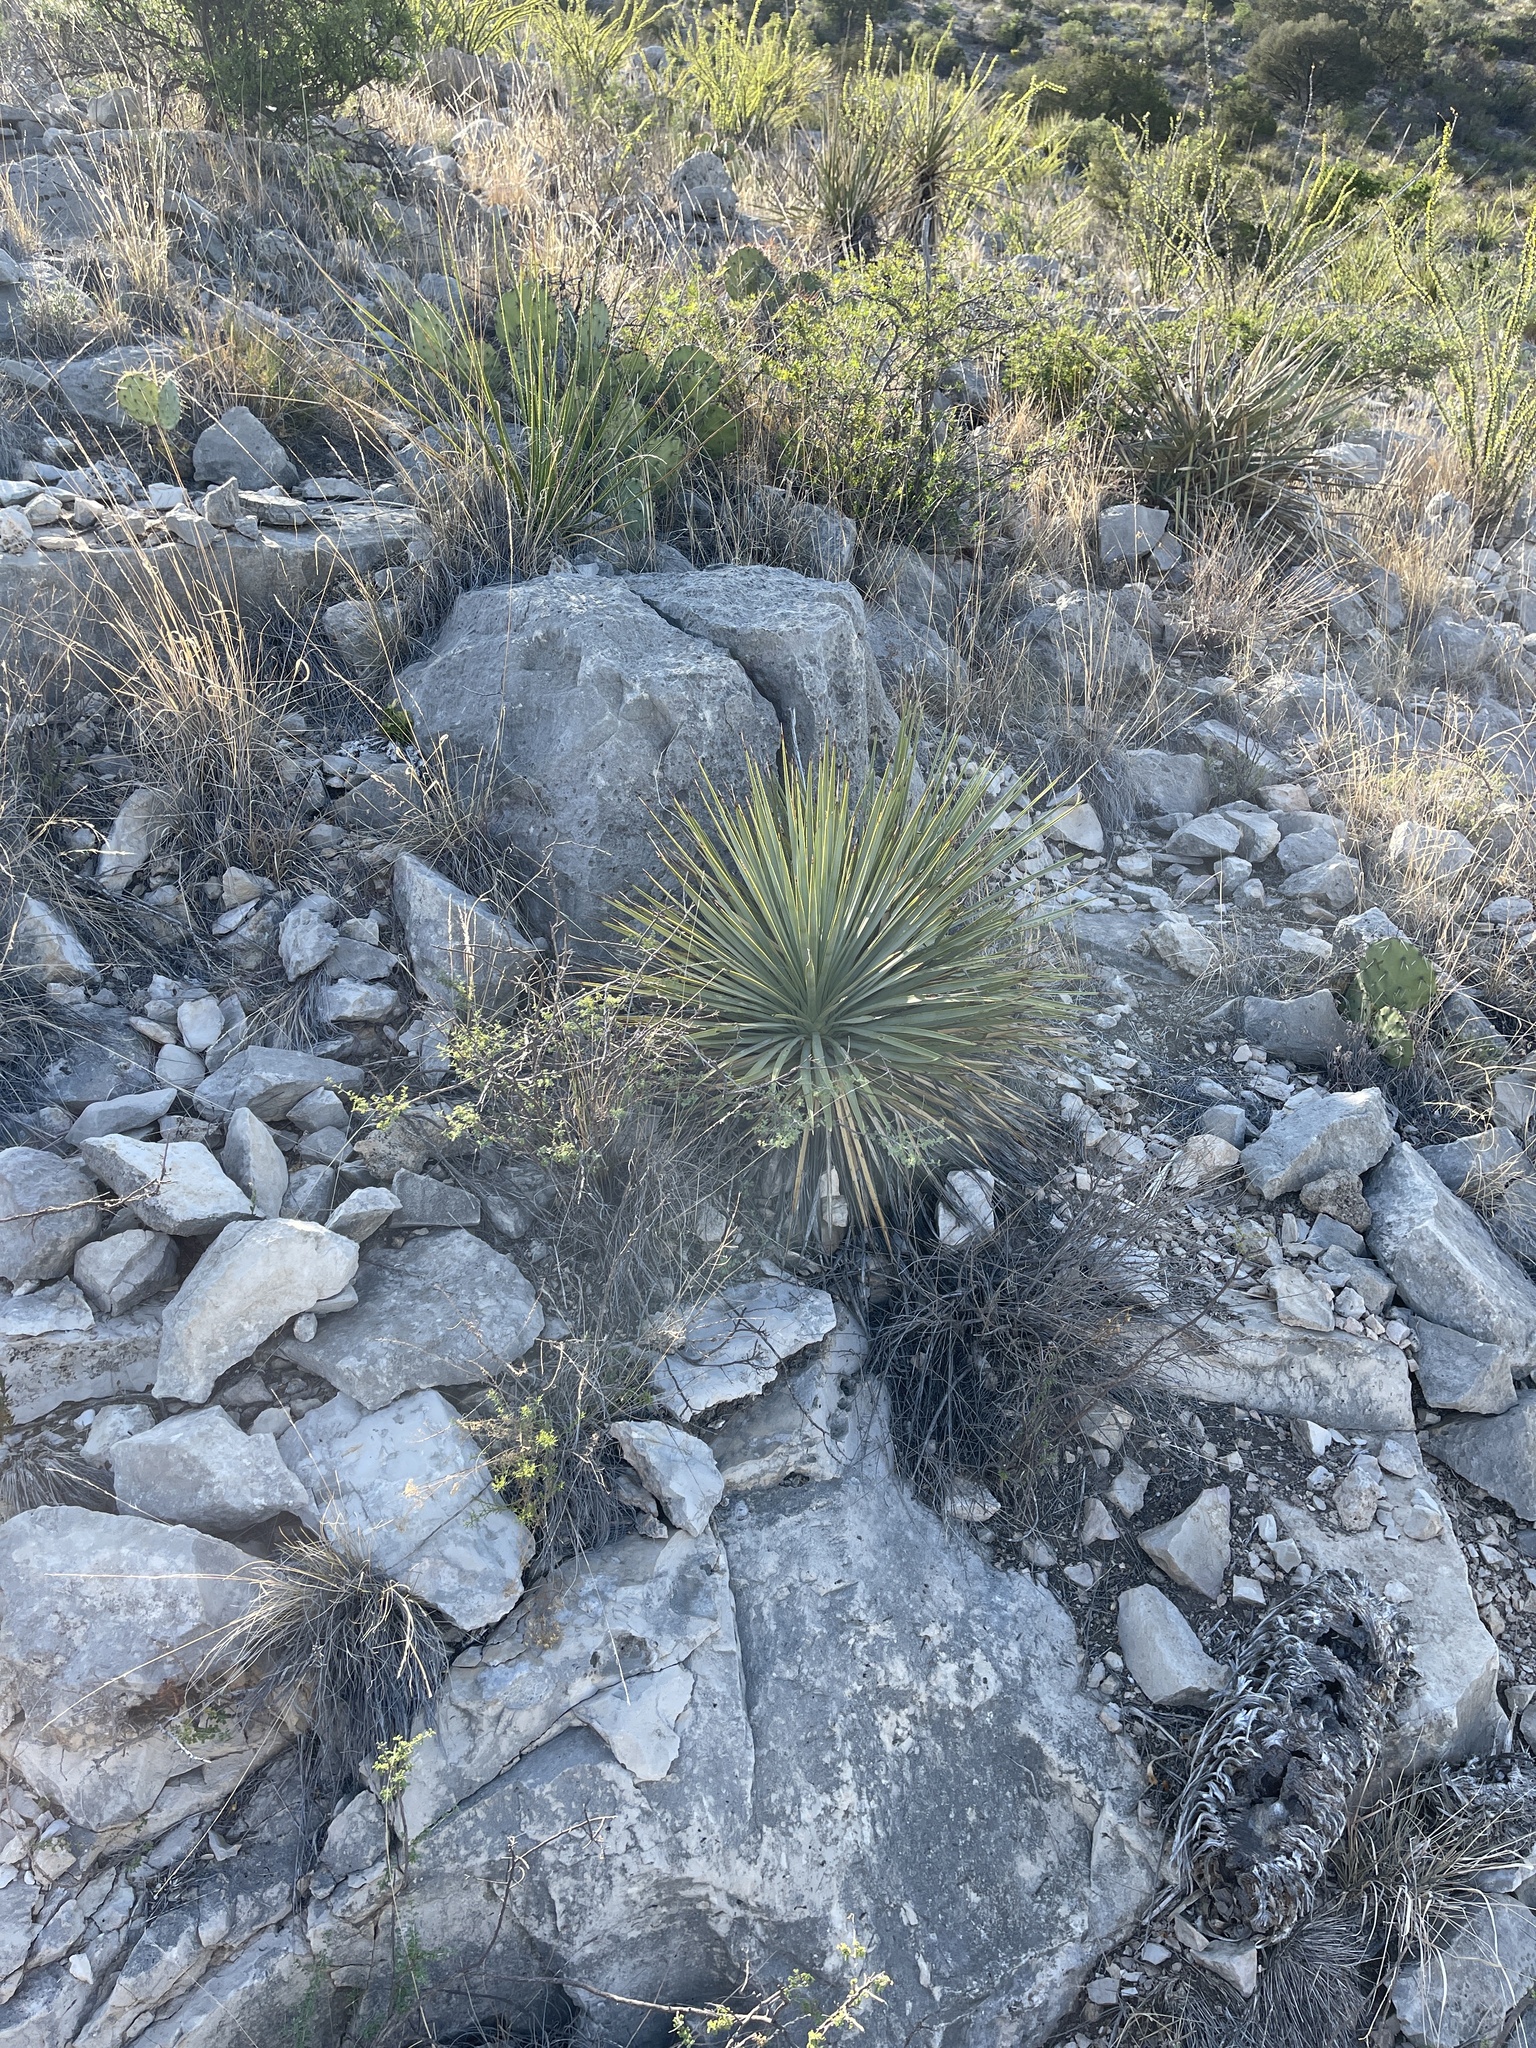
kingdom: Plantae
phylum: Tracheophyta
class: Liliopsida
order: Asparagales
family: Asparagaceae
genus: Yucca
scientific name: Yucca thompsoniana
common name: Trans-pecos yucca
